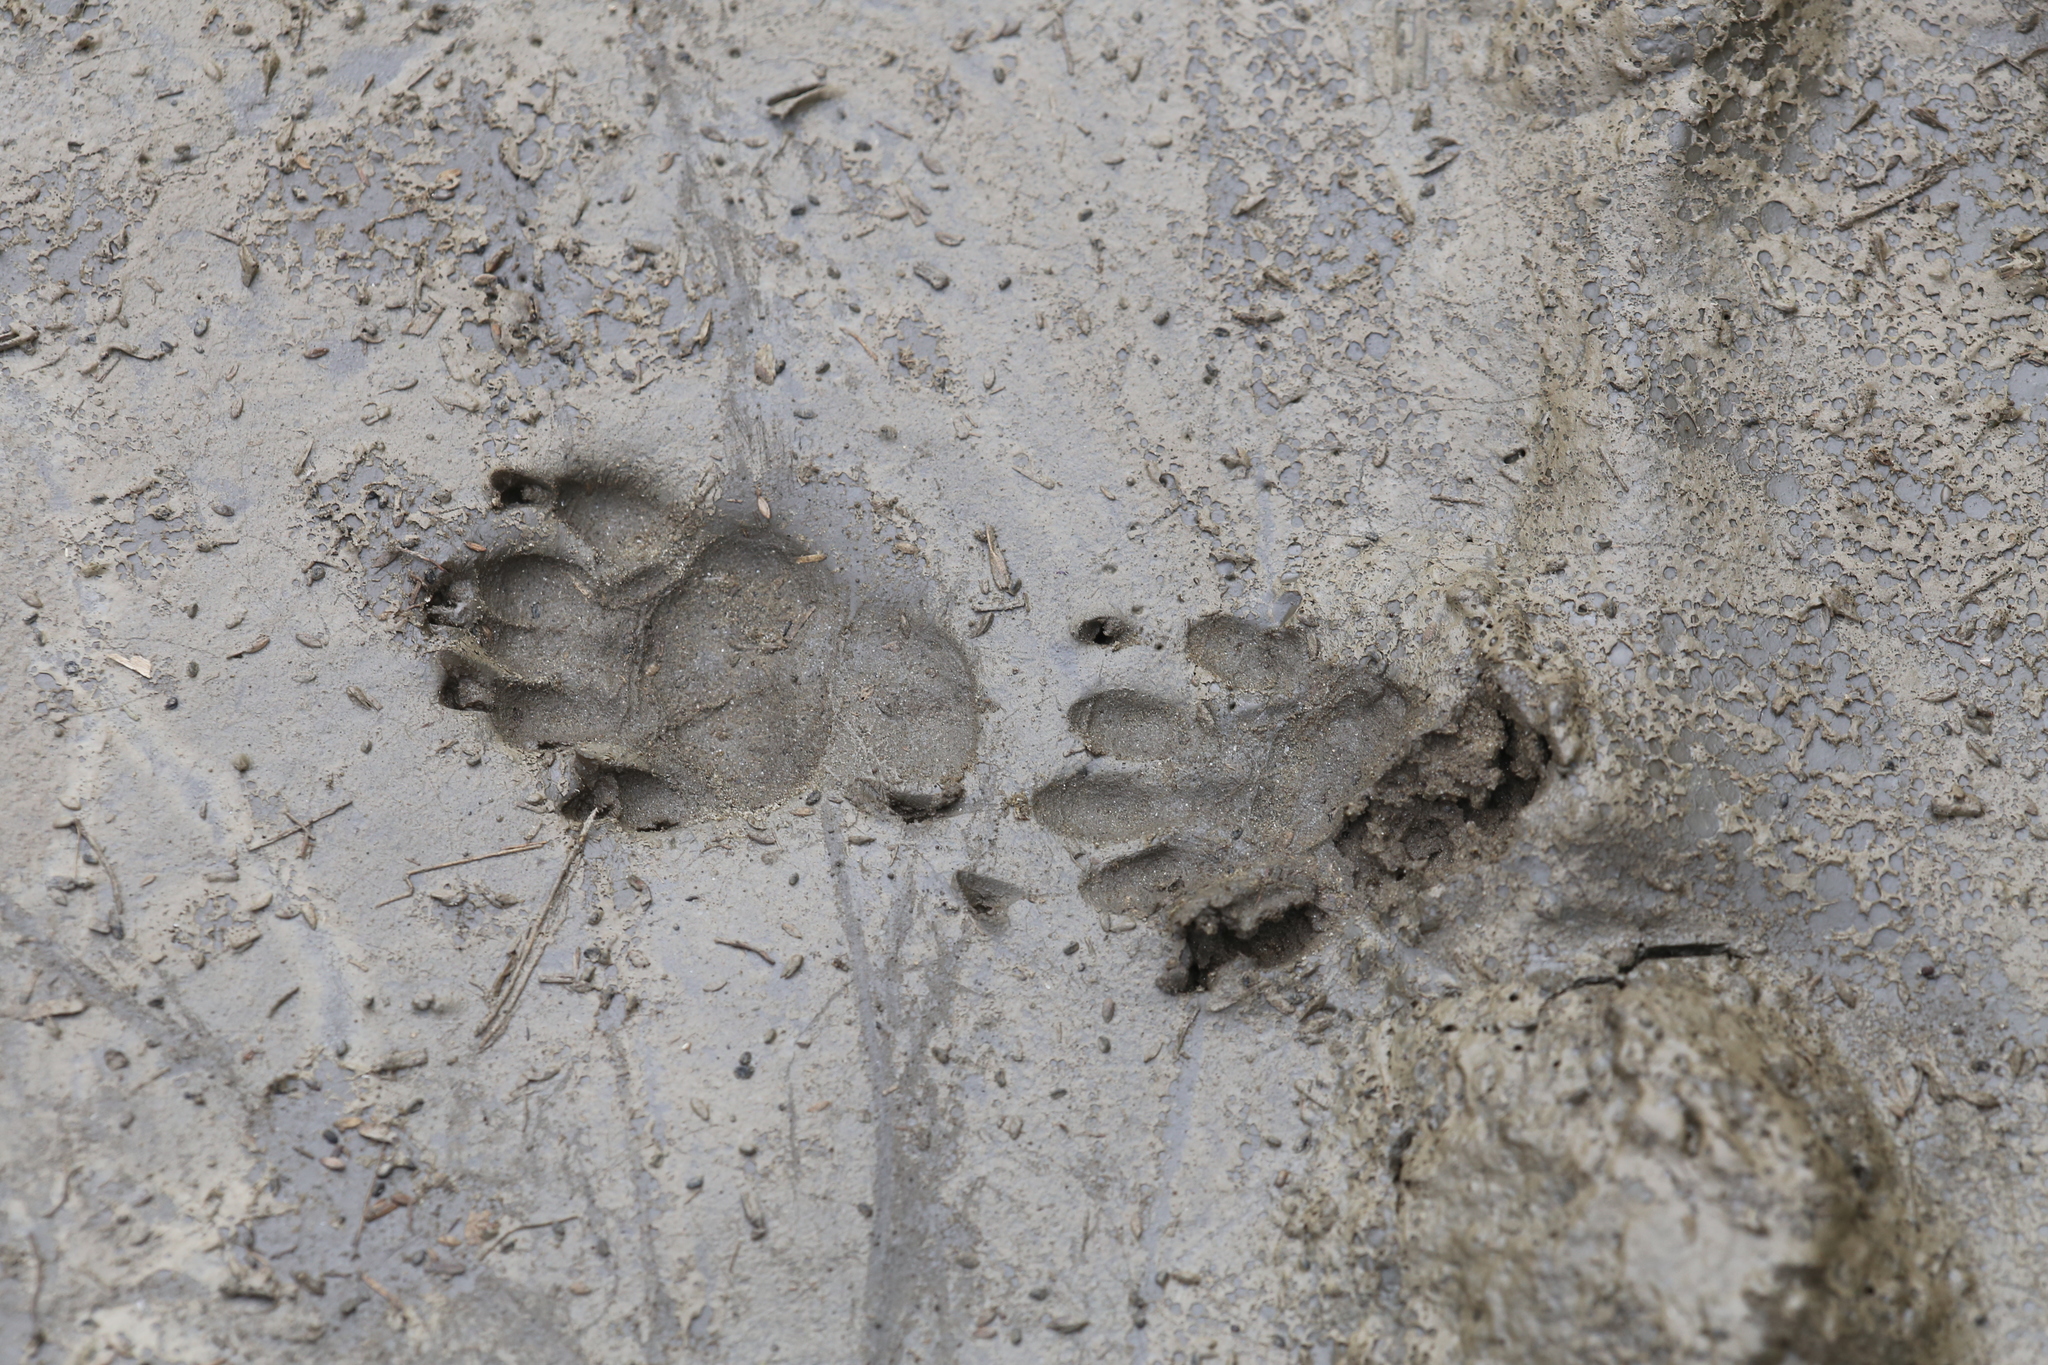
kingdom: Animalia
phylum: Chordata
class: Mammalia
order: Carnivora
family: Mephitidae
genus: Mephitis
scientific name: Mephitis mephitis
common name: Striped skunk
